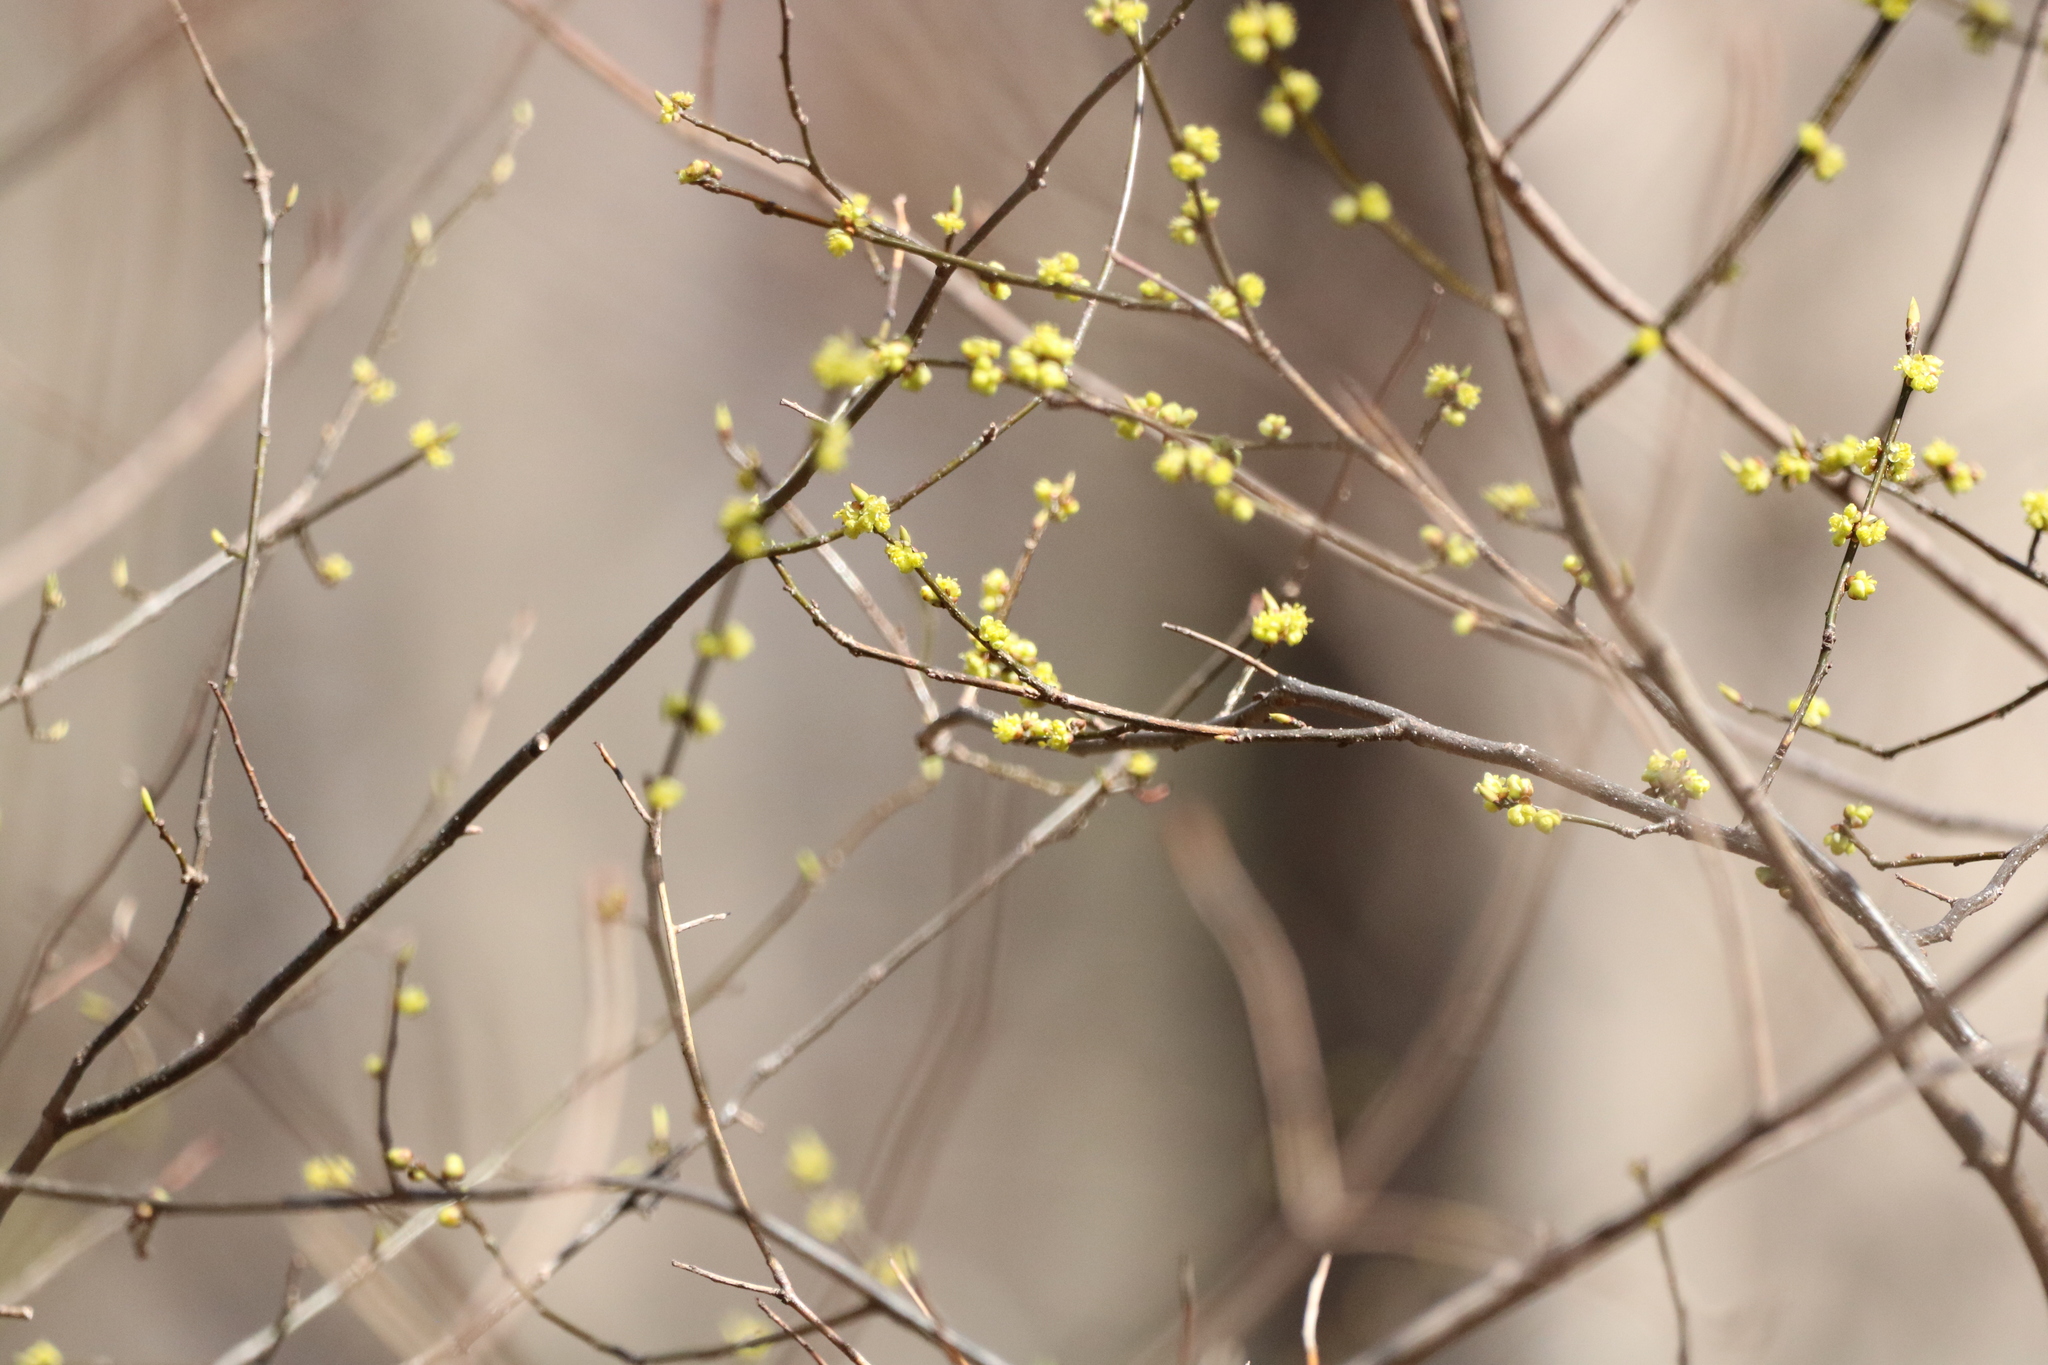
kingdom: Plantae
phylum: Tracheophyta
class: Magnoliopsida
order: Laurales
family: Lauraceae
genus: Lindera
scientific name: Lindera benzoin
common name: Spicebush
